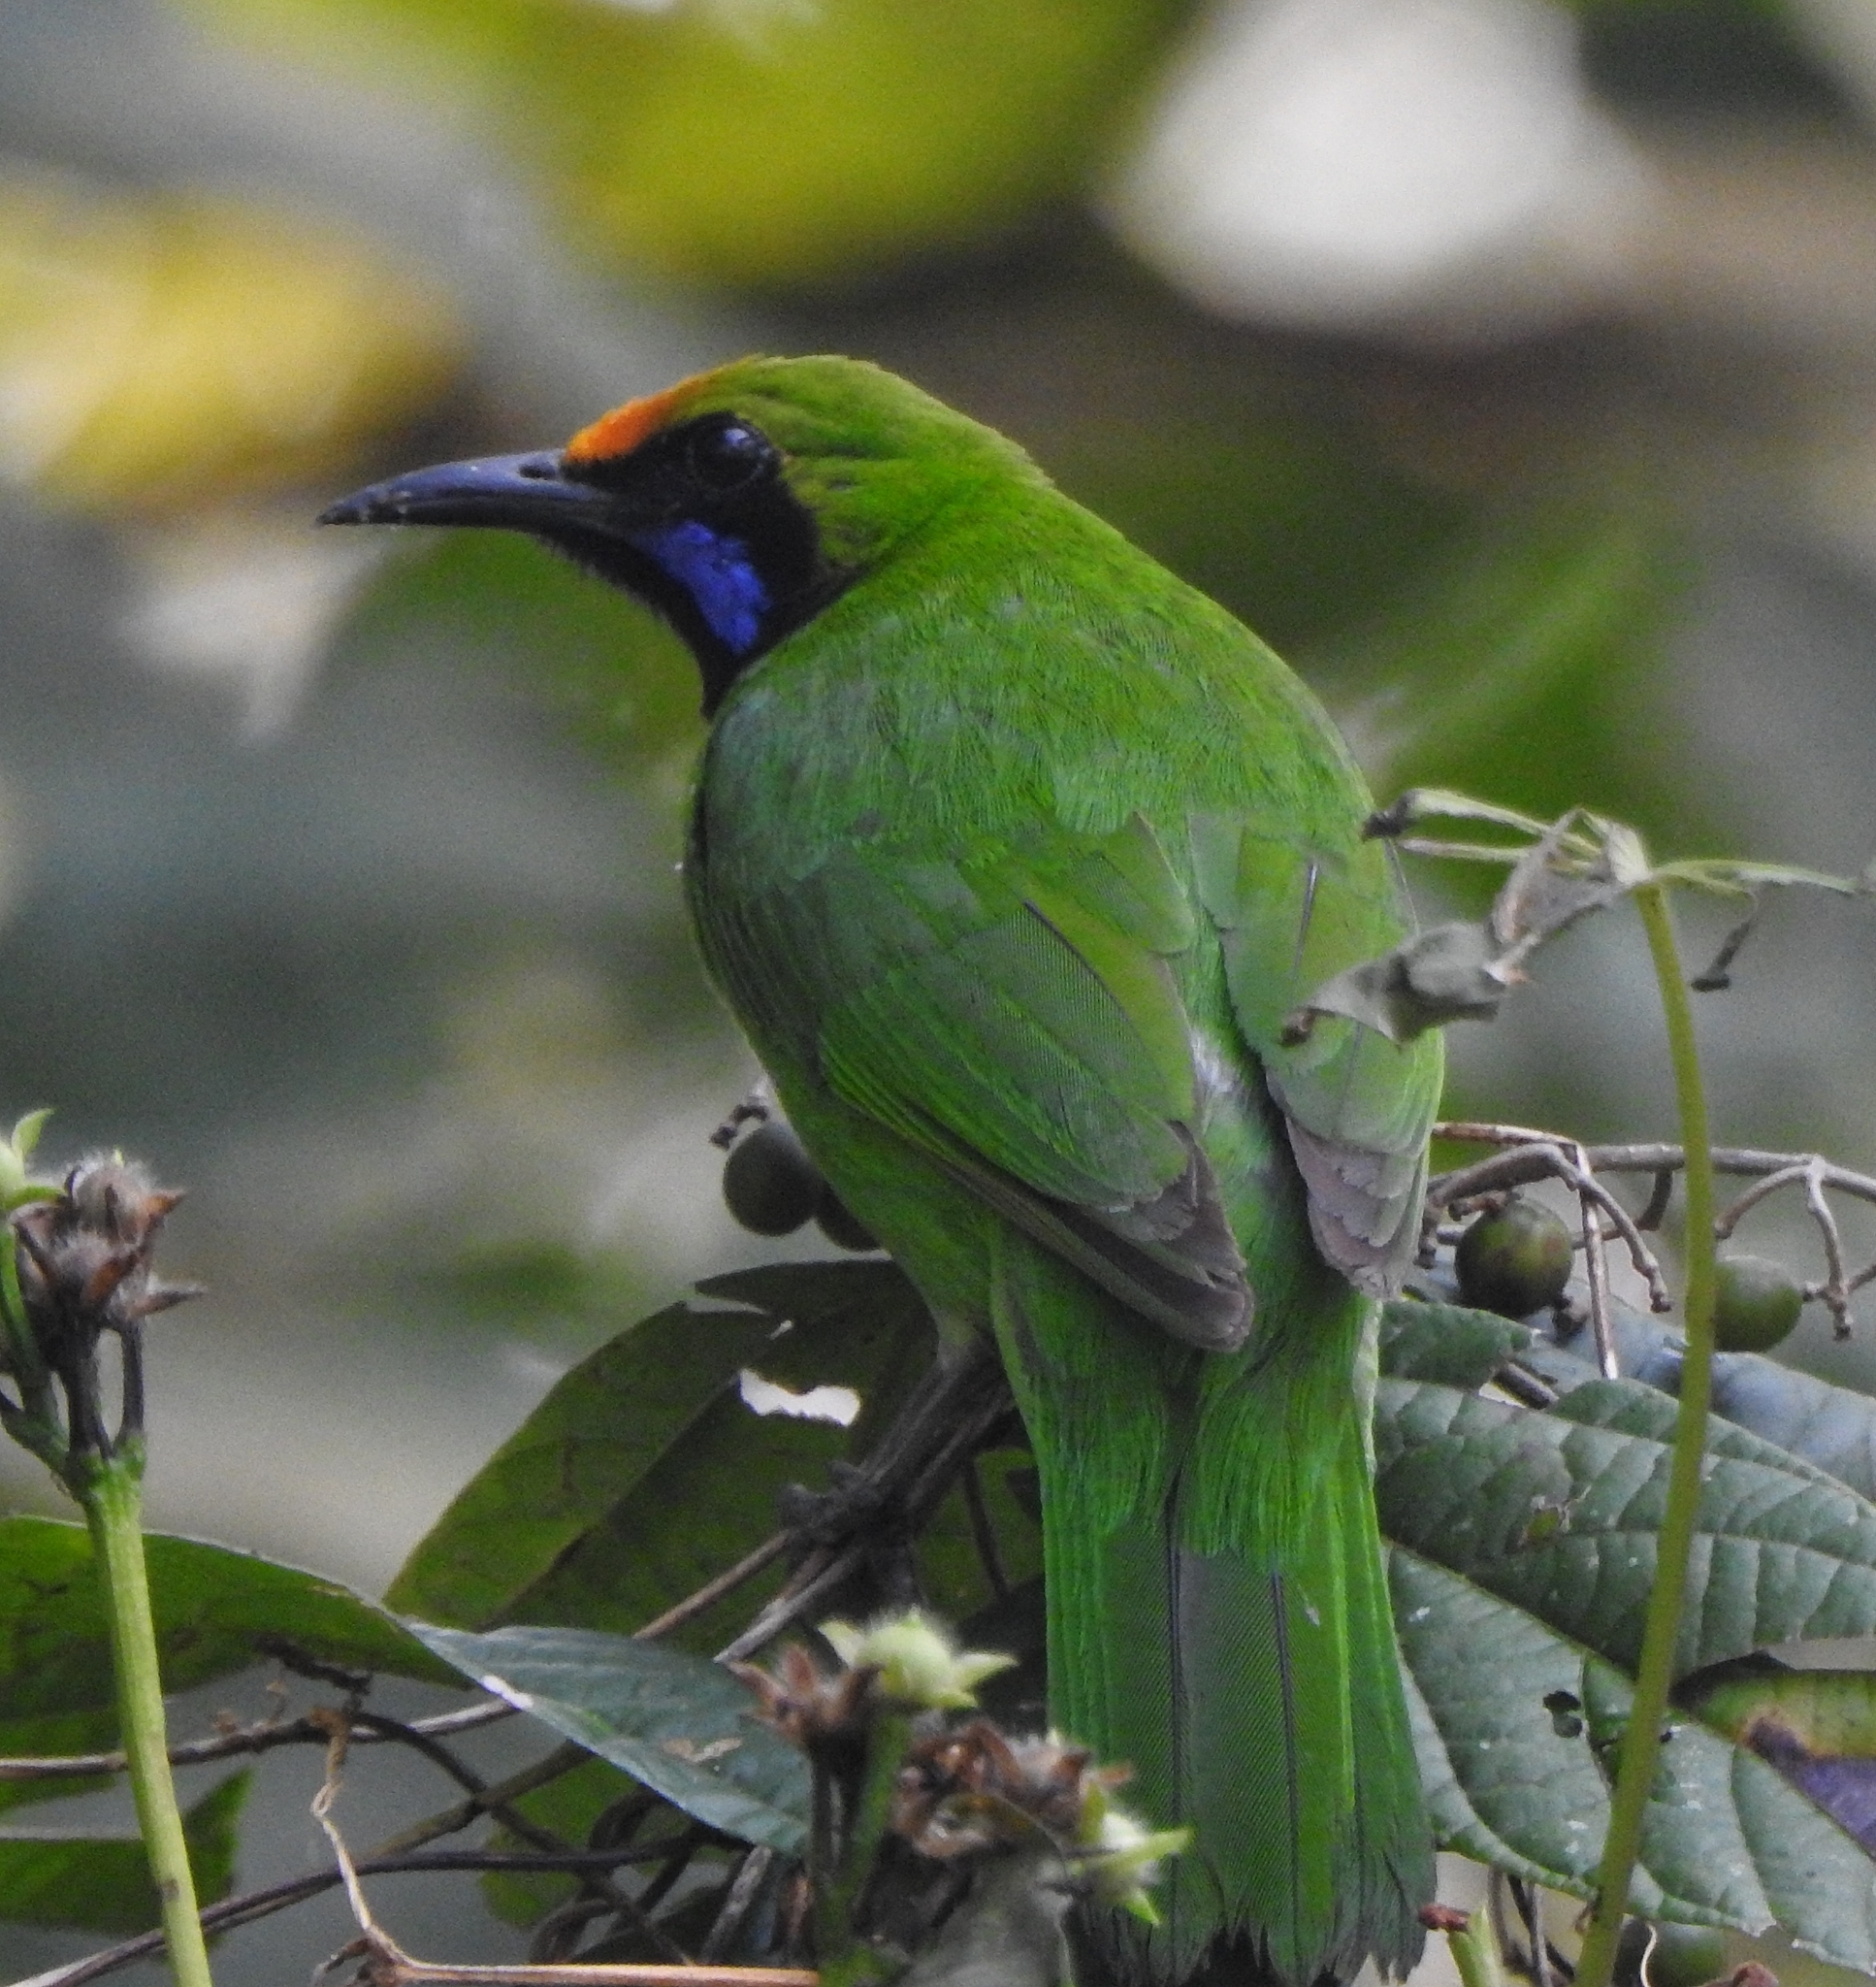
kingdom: Animalia
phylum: Chordata
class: Aves
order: Passeriformes
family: Chloropseidae
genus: Chloropsis
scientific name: Chloropsis aurifrons
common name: Golden-fronted leafbird
